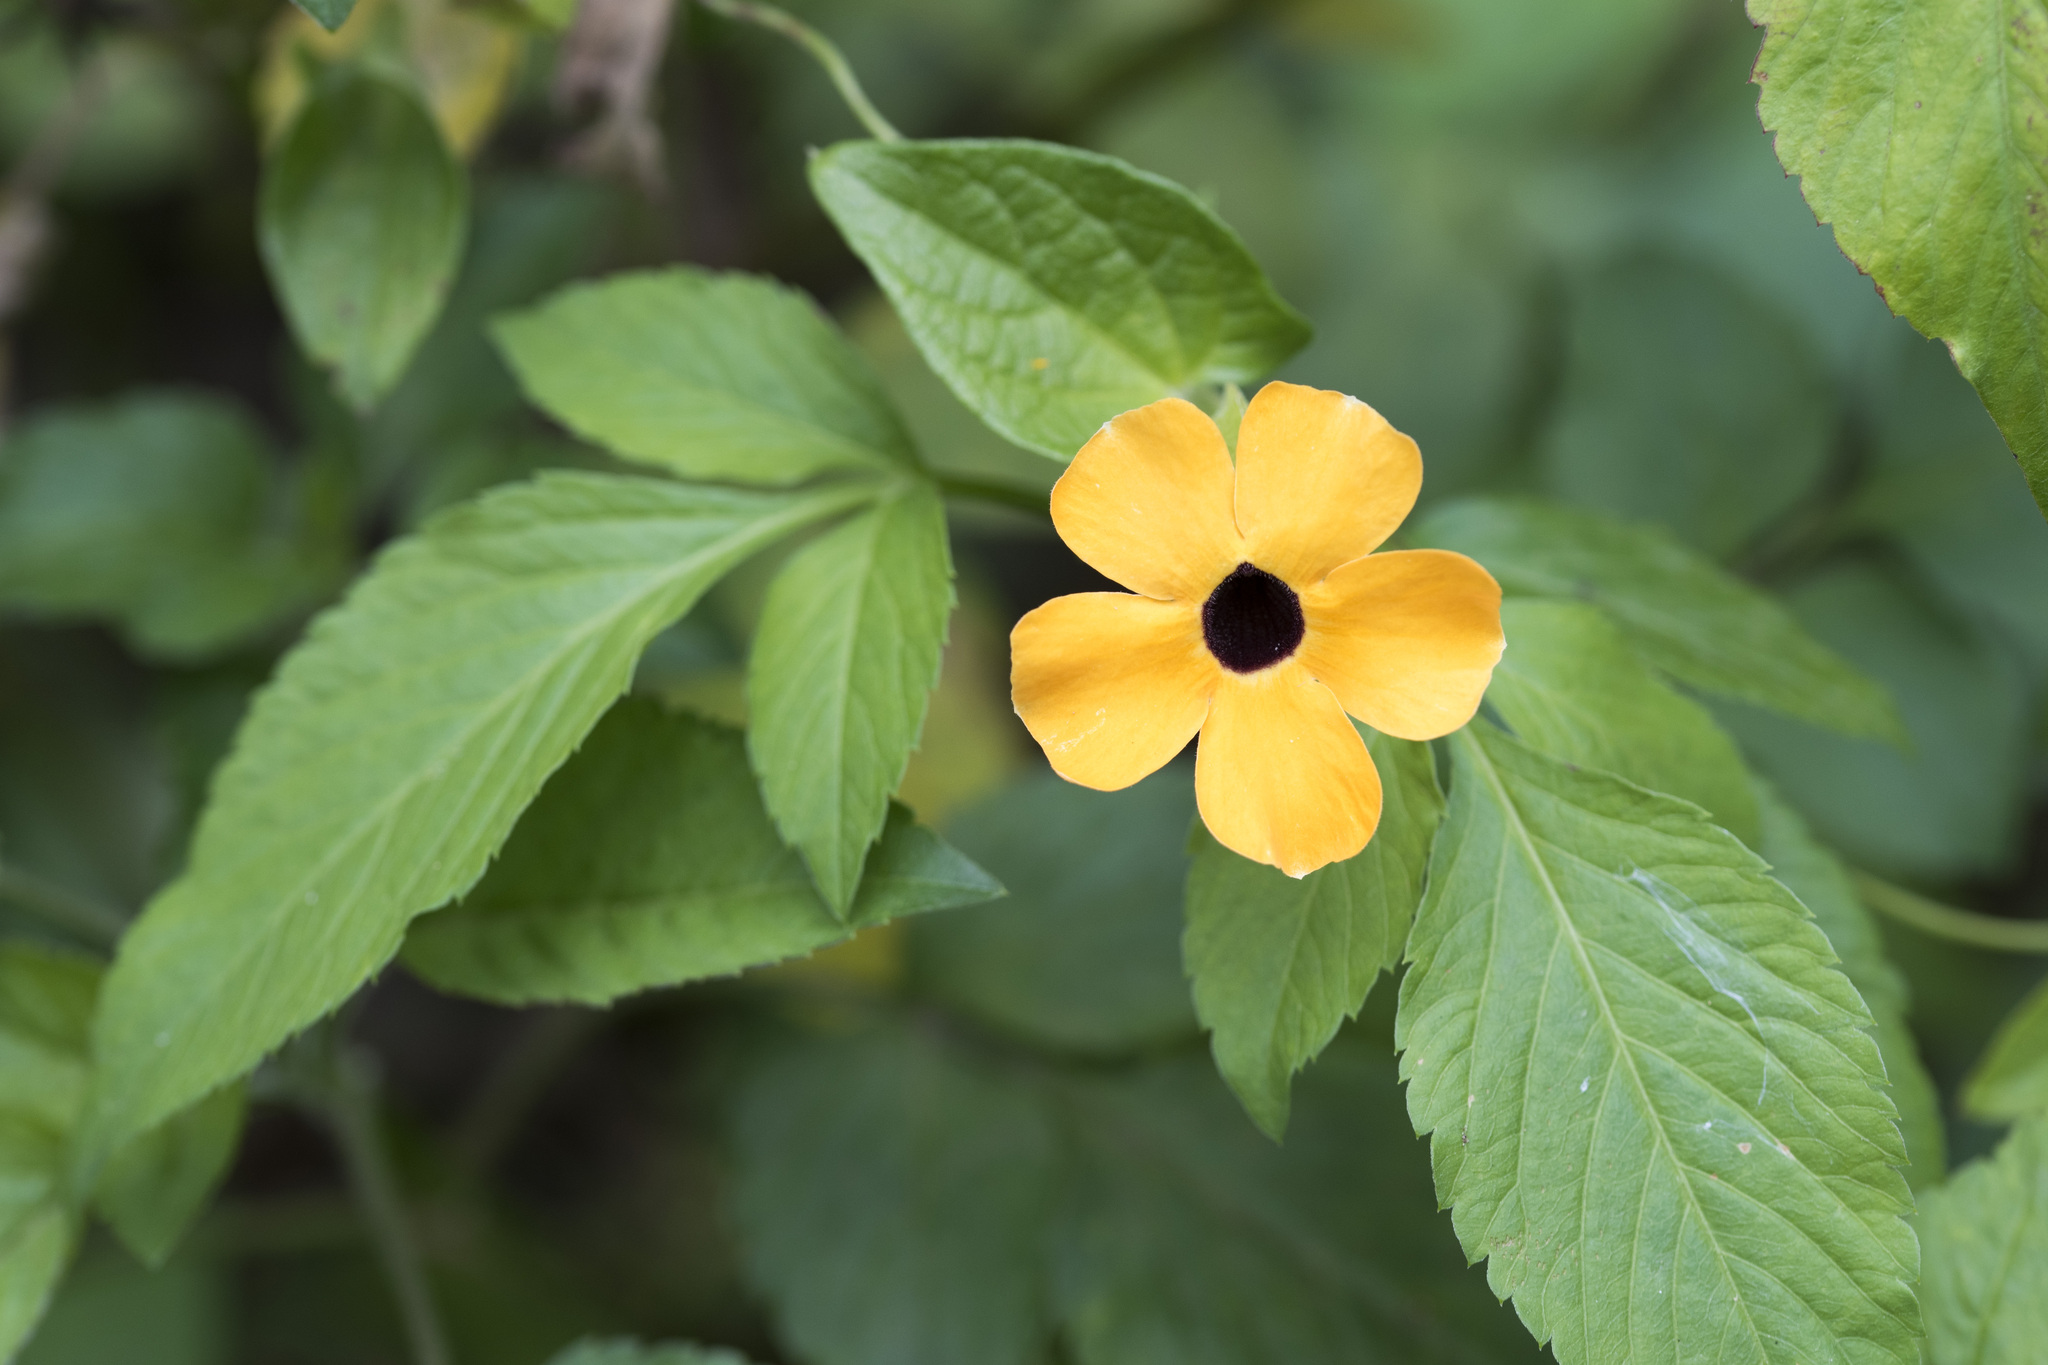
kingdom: Plantae
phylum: Tracheophyta
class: Magnoliopsida
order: Lamiales
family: Acanthaceae
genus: Thunbergia
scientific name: Thunbergia alata
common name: Blackeyed susan vine
